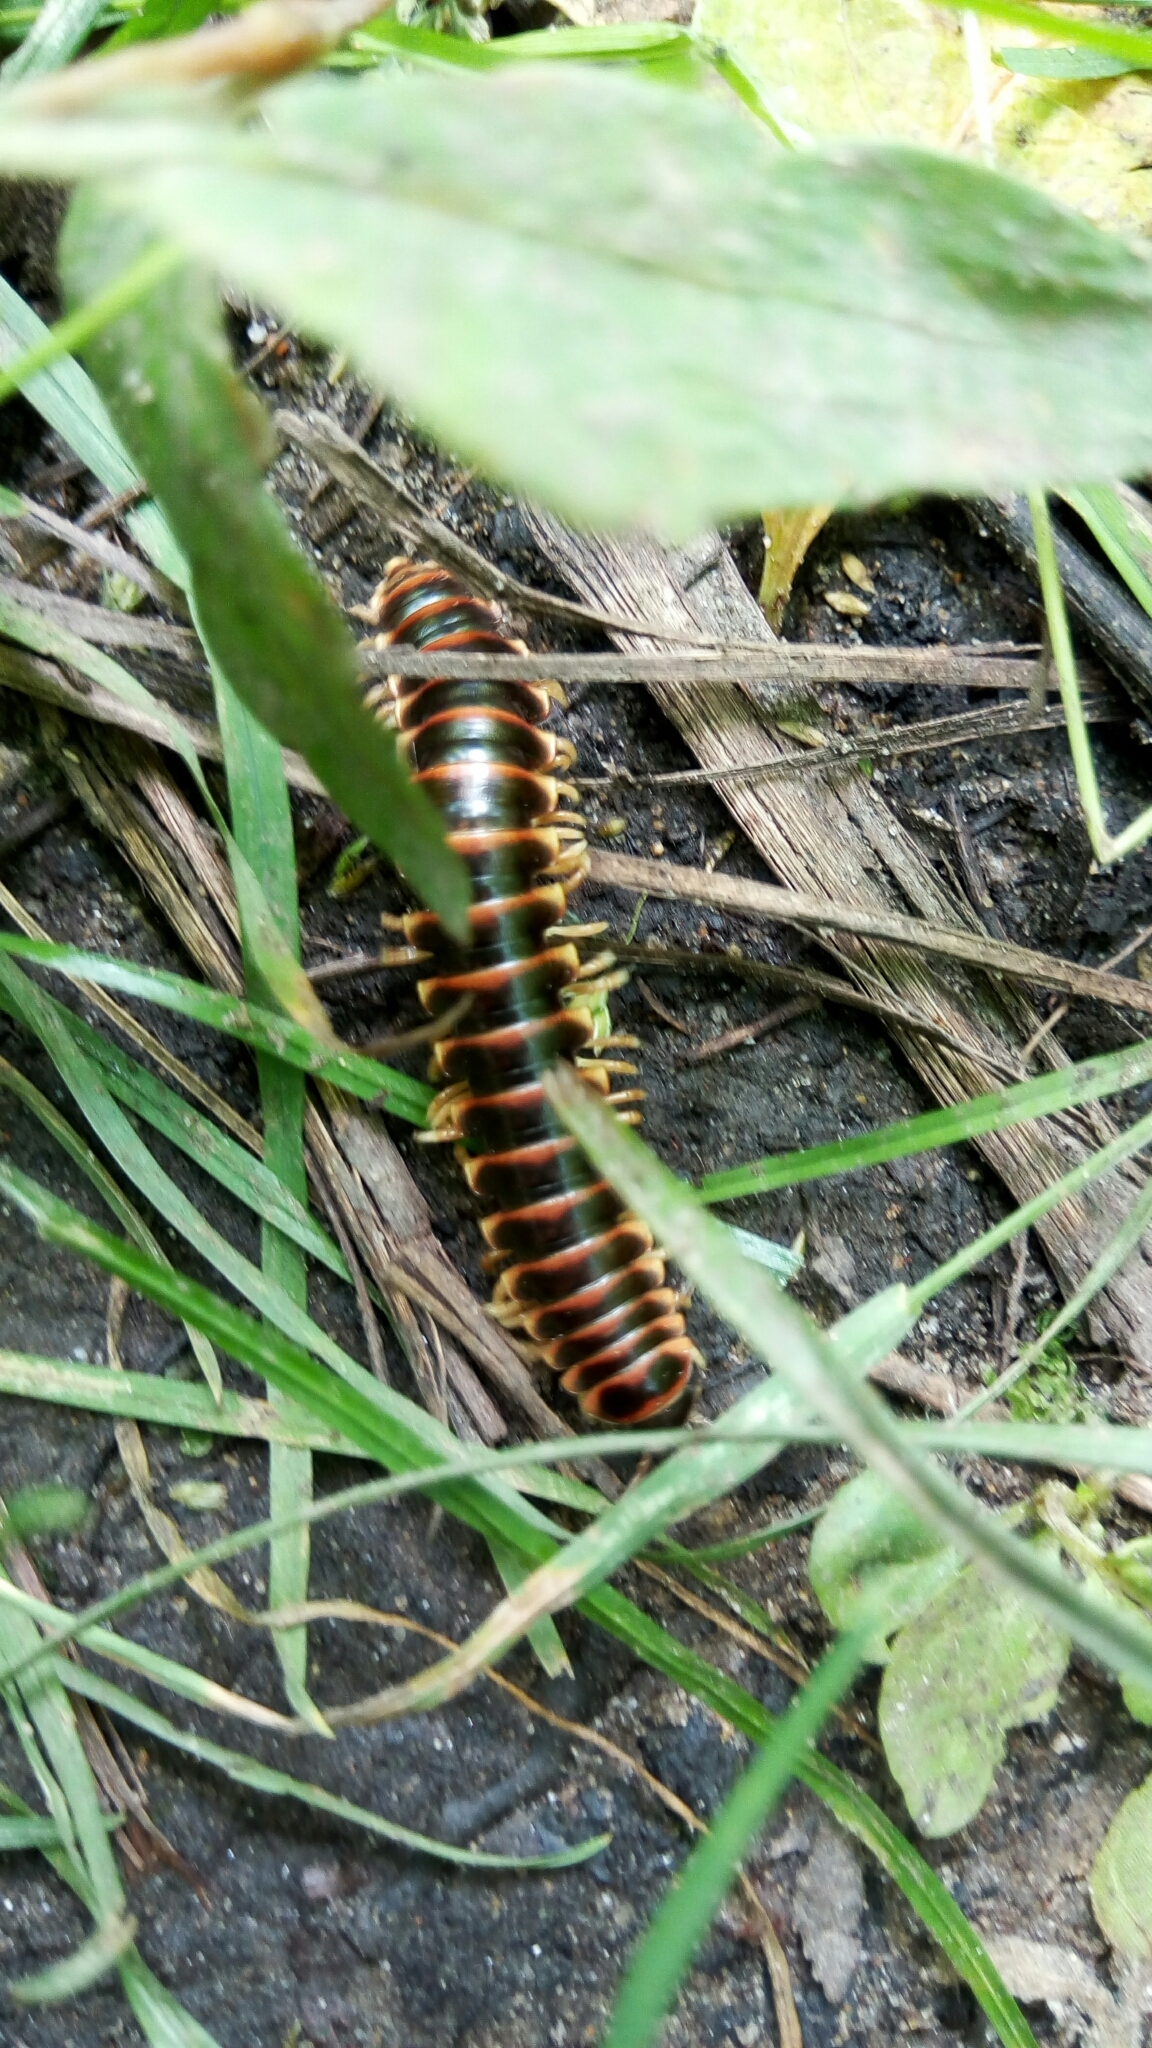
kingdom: Animalia
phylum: Arthropoda
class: Diplopoda
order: Polydesmida
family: Xystodesmidae
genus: Pleuroloma
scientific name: Pleuroloma flavipes
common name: Yellow-legged pleuroloma
